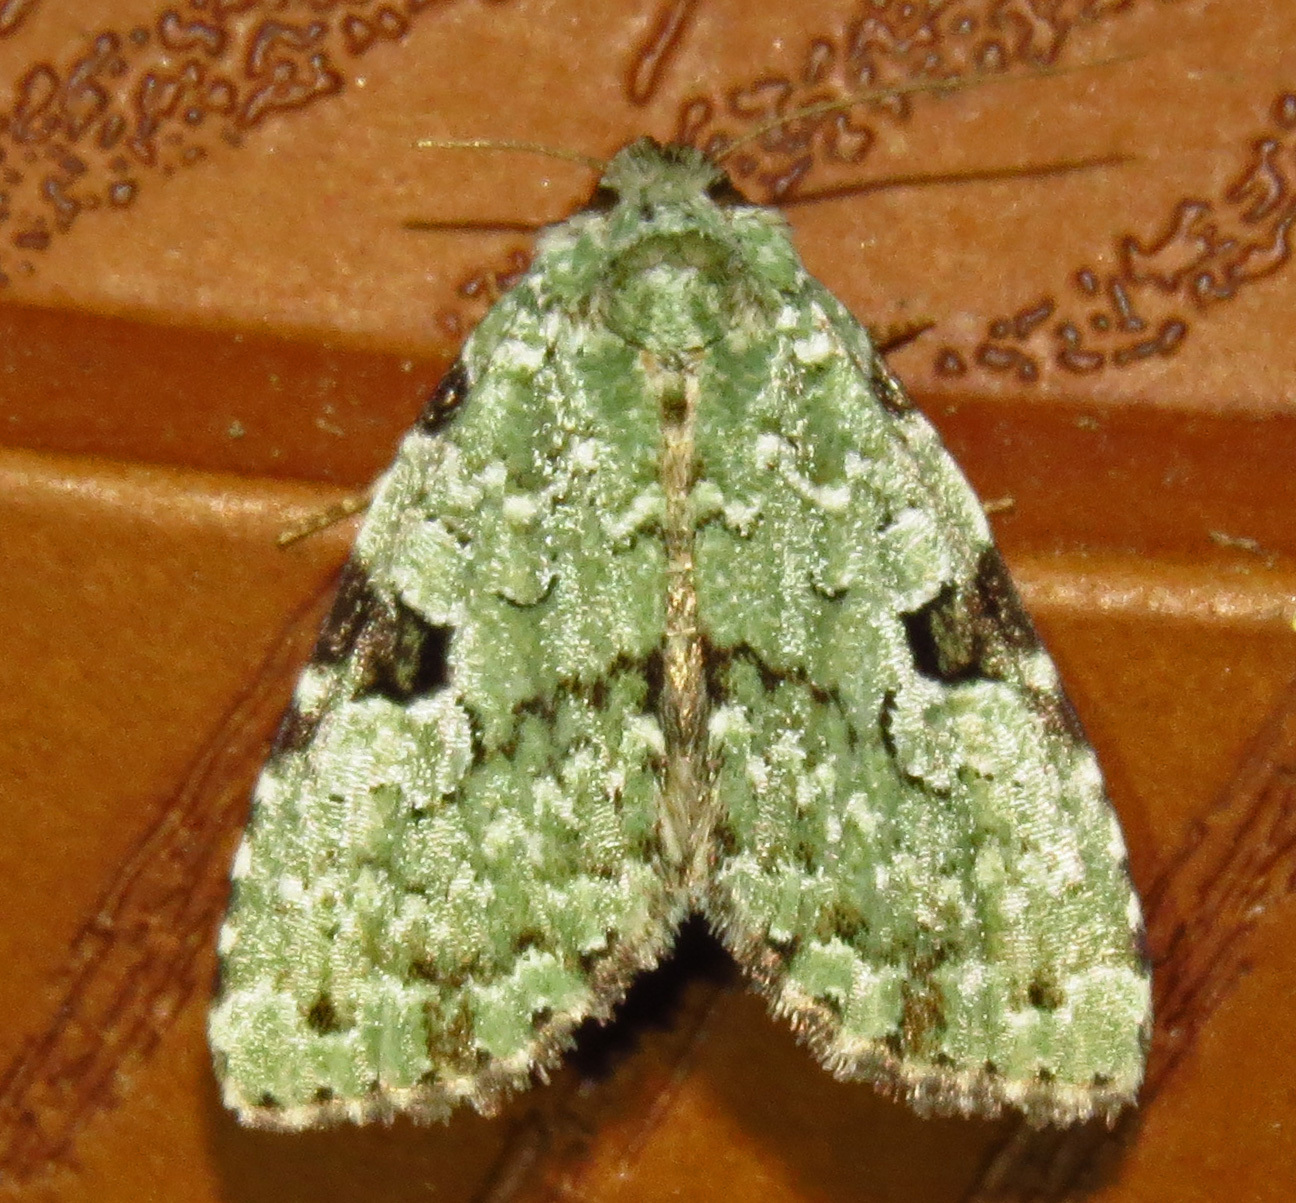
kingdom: Animalia
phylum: Arthropoda
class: Insecta
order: Lepidoptera
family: Noctuidae
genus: Leuconycta
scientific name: Leuconycta diphteroides
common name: Green leuconycta moth
